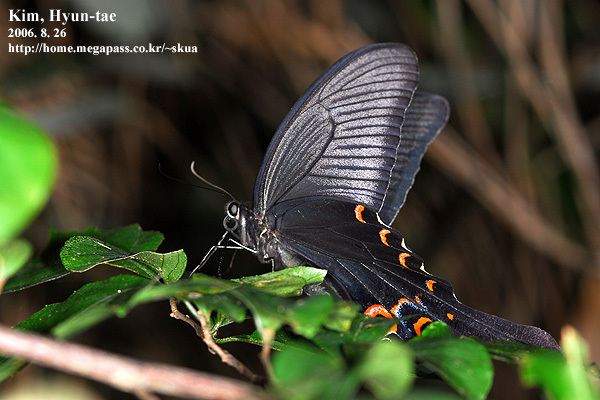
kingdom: Animalia
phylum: Arthropoda
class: Insecta
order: Lepidoptera
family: Papilionidae
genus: Papilio
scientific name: Papilio macilentus
